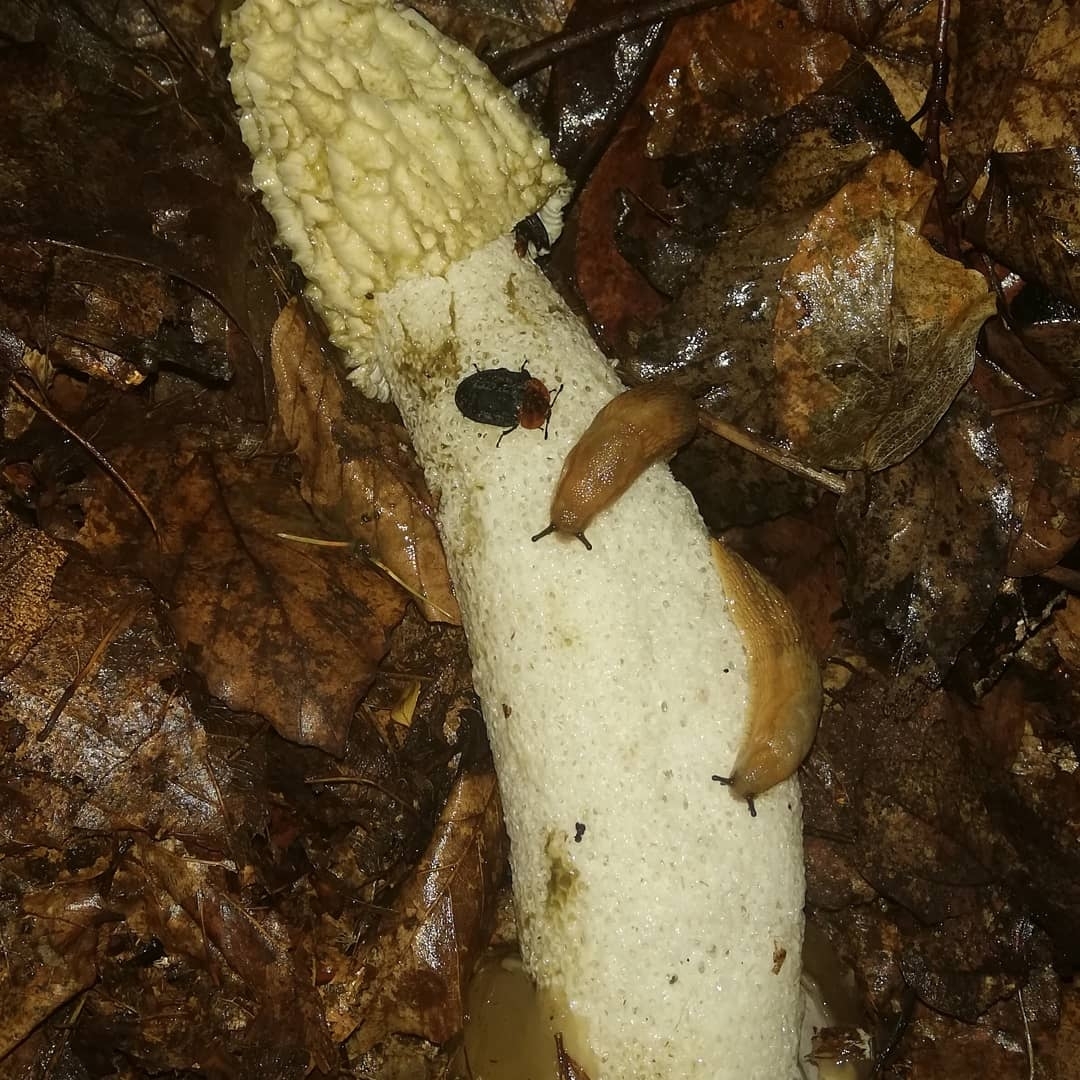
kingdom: Fungi
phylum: Basidiomycota
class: Agaricomycetes
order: Phallales
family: Phallaceae
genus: Phallus
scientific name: Phallus impudicus
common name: Common stinkhorn
